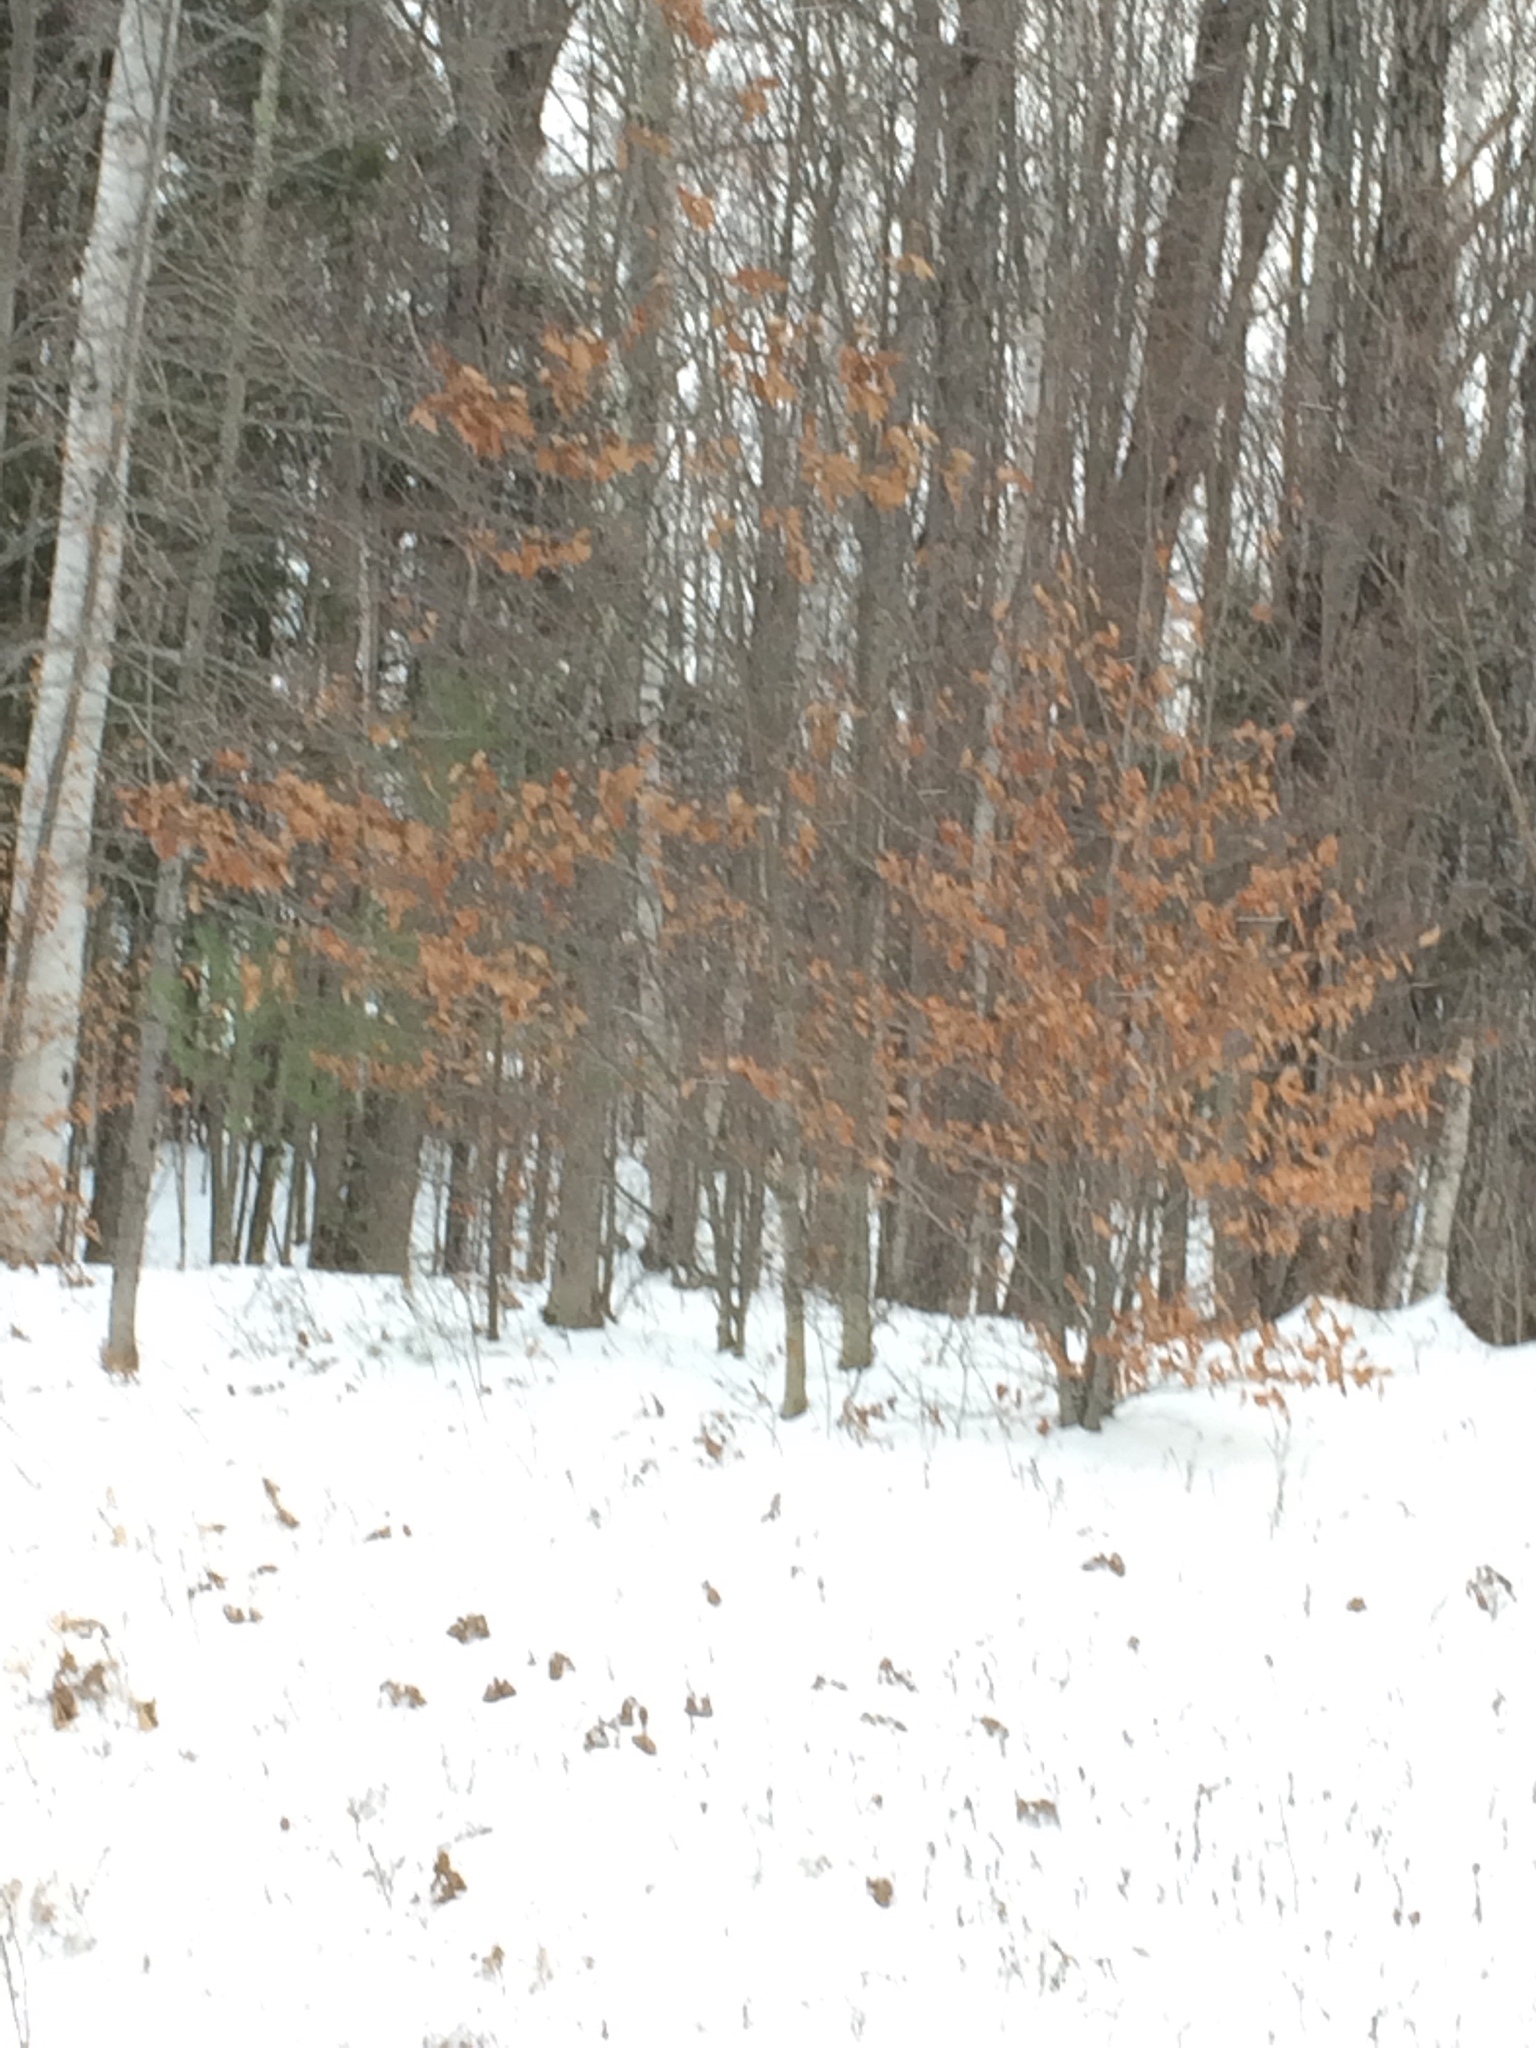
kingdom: Plantae
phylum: Tracheophyta
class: Magnoliopsida
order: Fagales
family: Fagaceae
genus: Fagus
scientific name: Fagus grandifolia
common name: American beech
